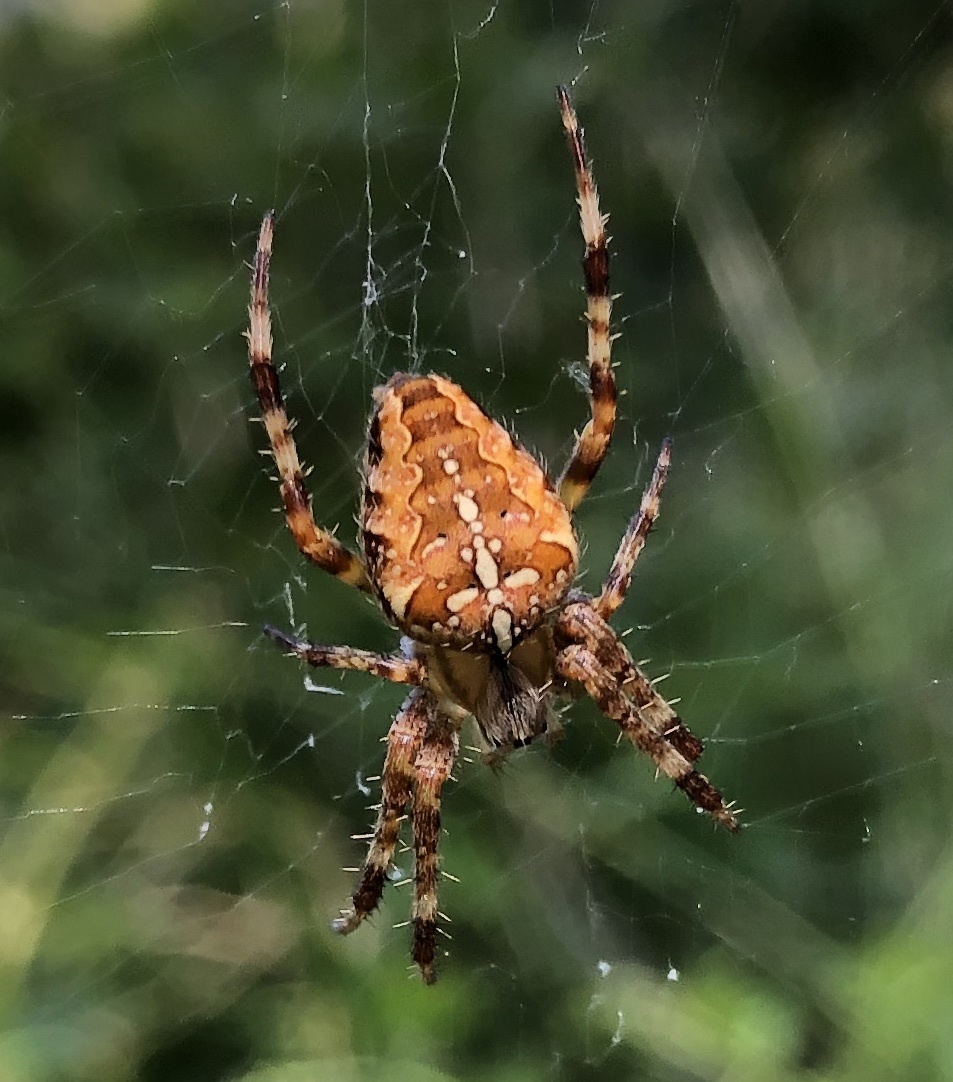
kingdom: Animalia
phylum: Arthropoda
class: Arachnida
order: Araneae
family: Araneidae
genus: Araneus
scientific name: Araneus diadematus
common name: Cross orbweaver
